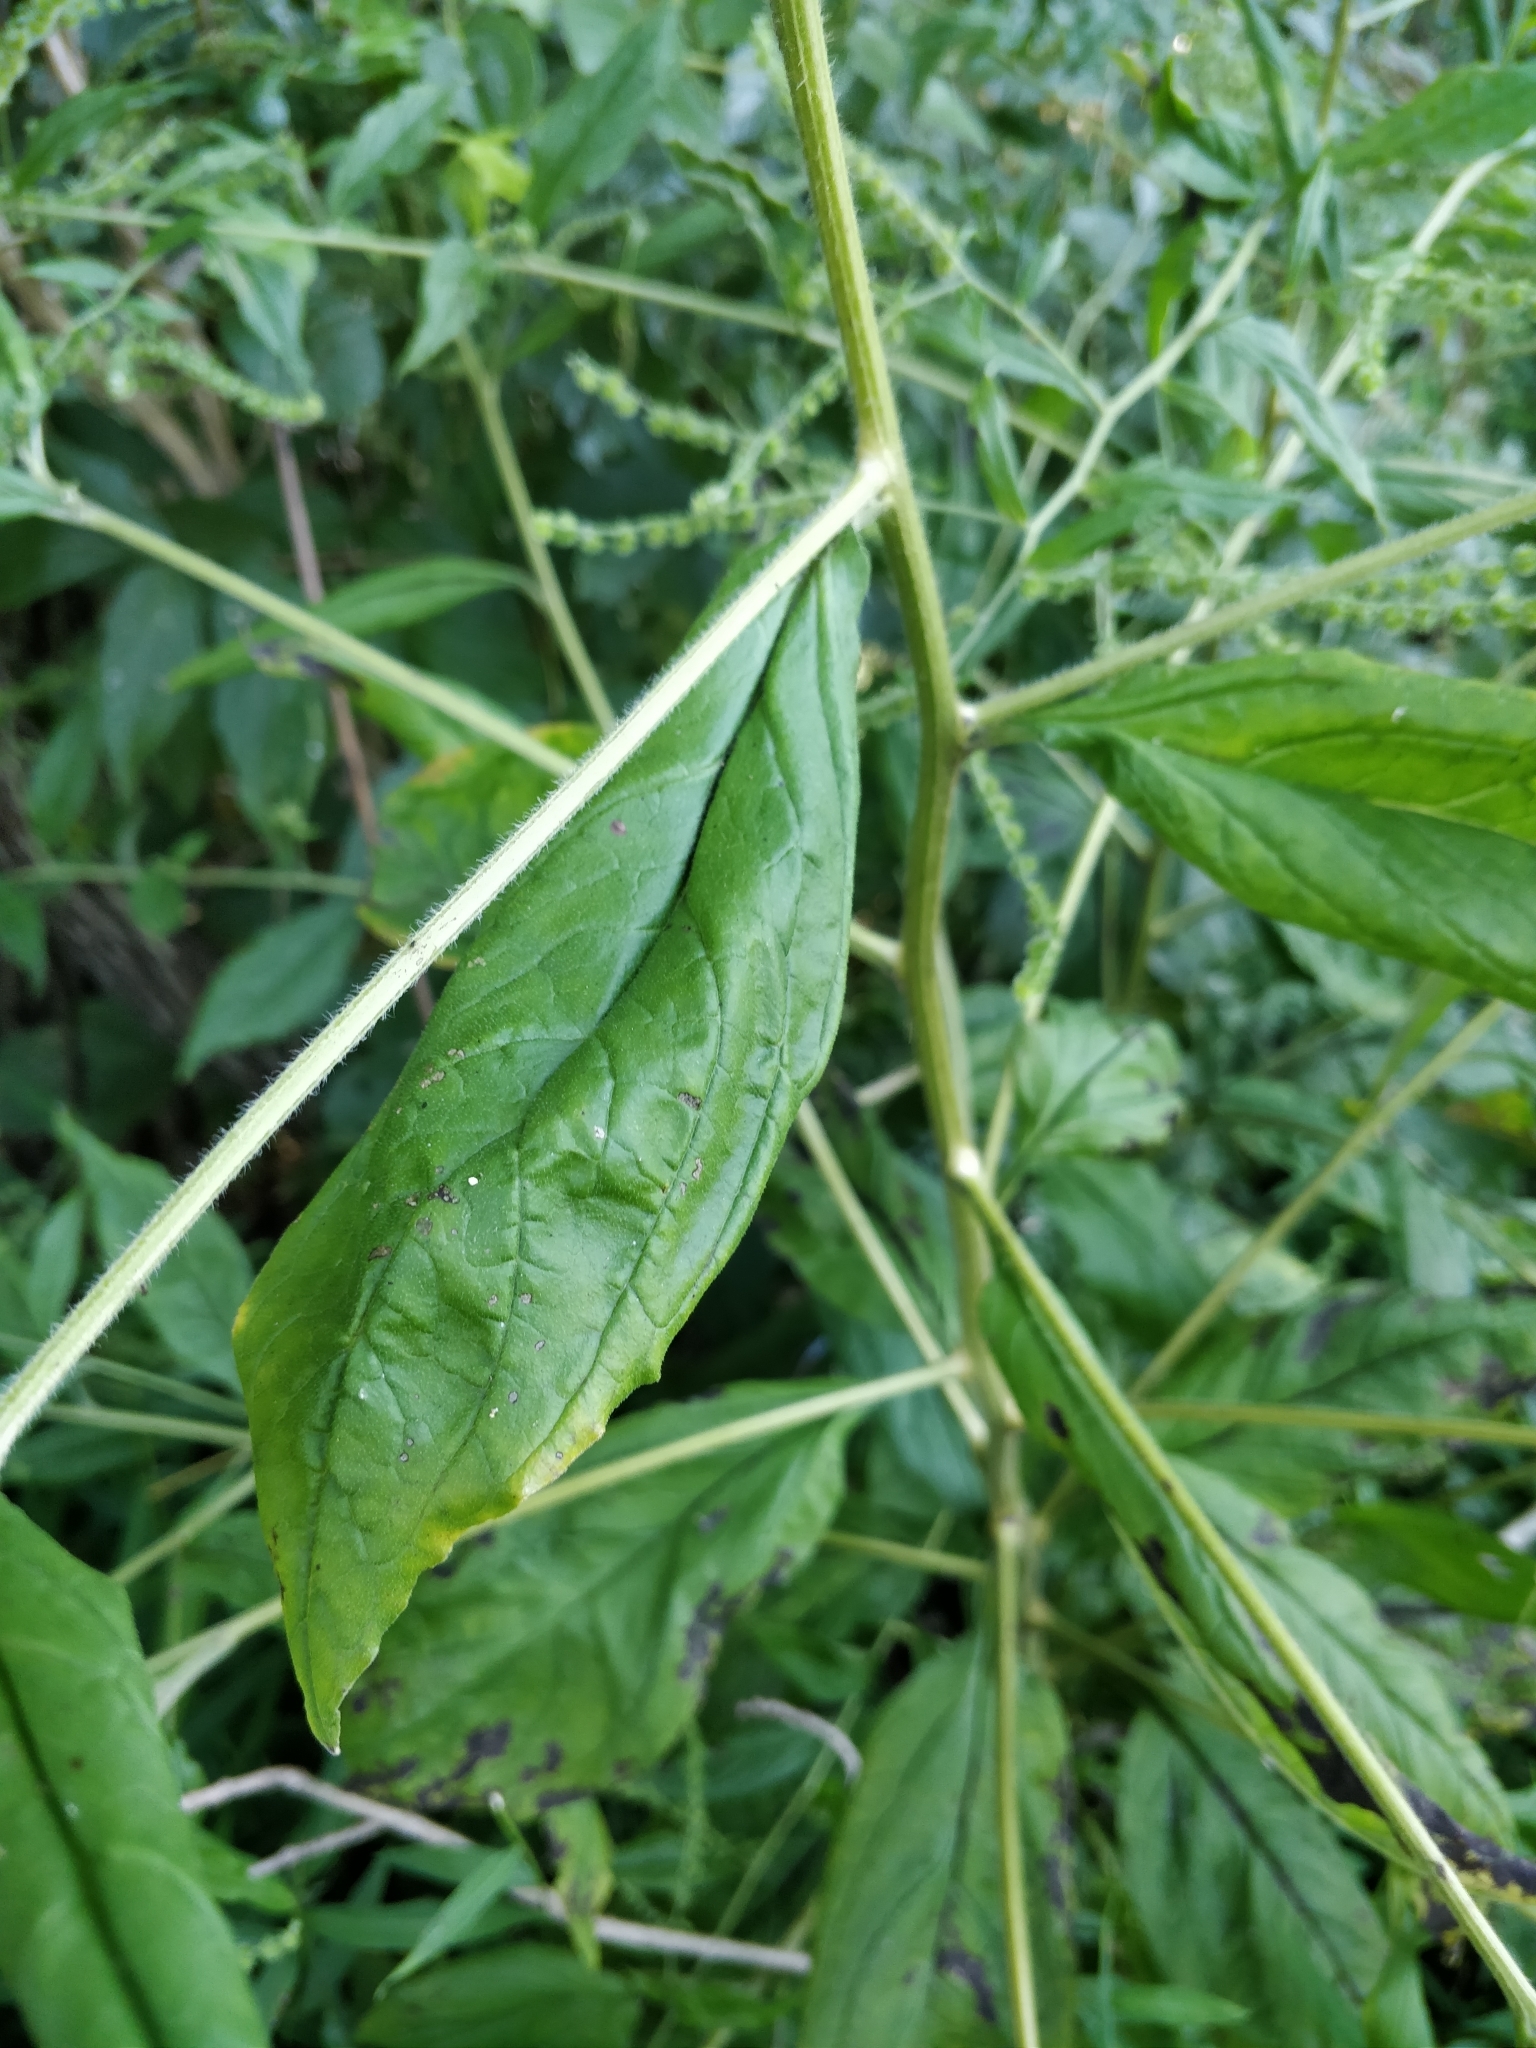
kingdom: Plantae
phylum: Tracheophyta
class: Magnoliopsida
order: Boraginales
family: Boraginaceae
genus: Hackelia
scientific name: Hackelia virginiana
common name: Beggar's-lice
